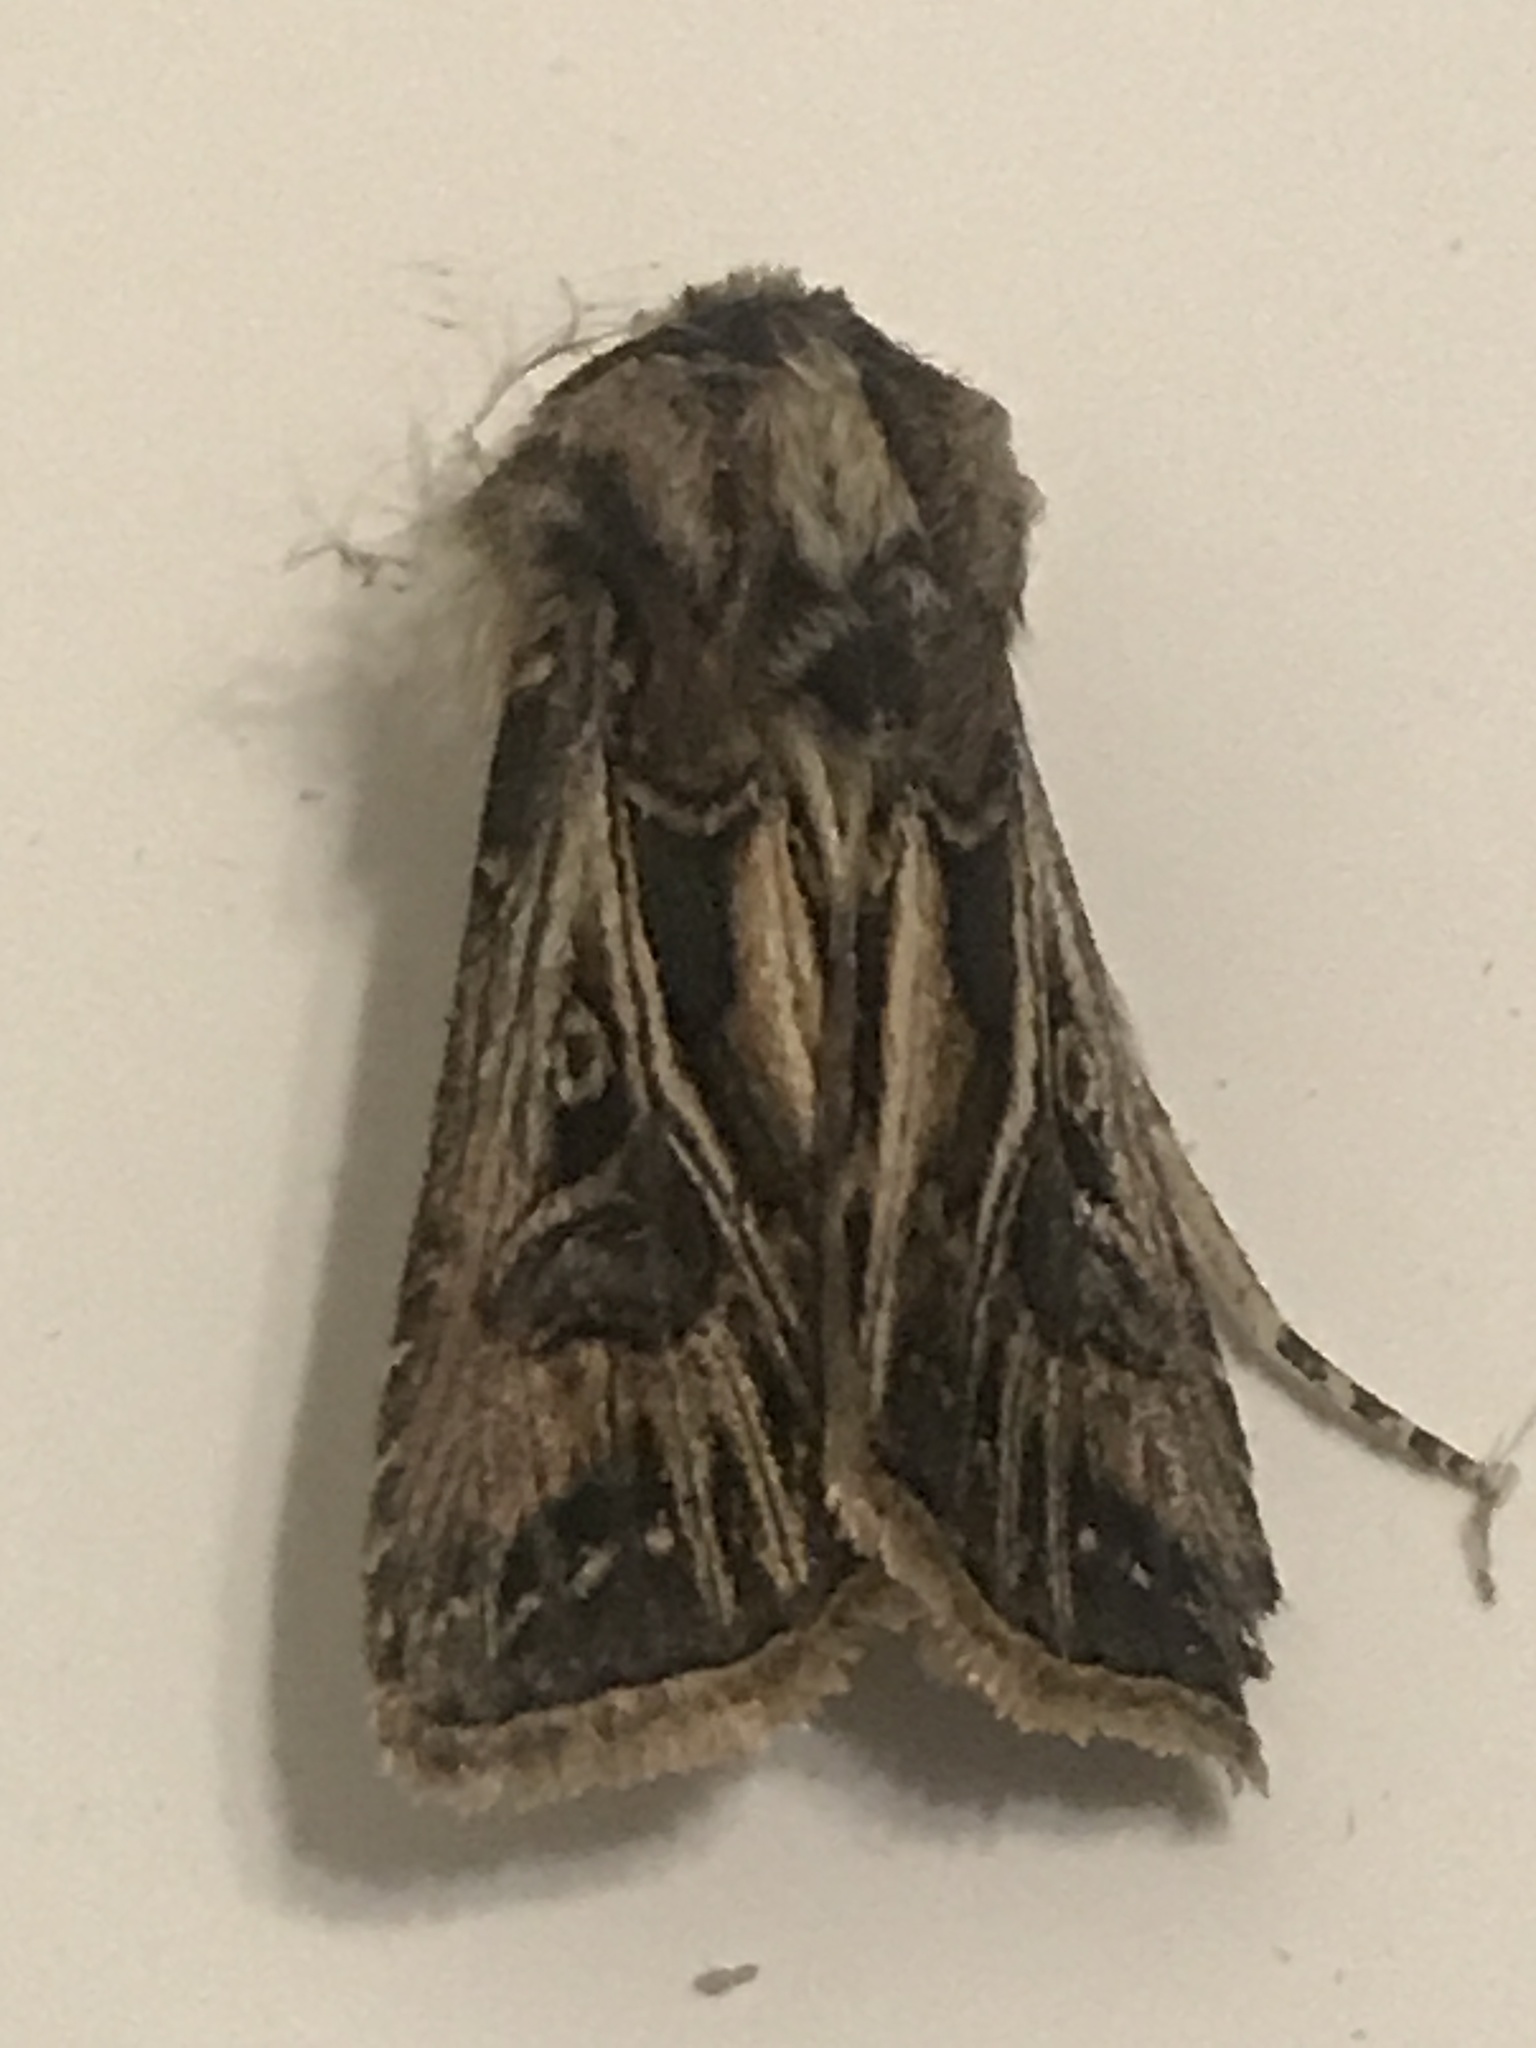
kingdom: Animalia
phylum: Arthropoda
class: Insecta
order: Lepidoptera
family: Noctuidae
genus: Agrotis
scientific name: Agrotis gladiaria
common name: Claybacked cutworm
